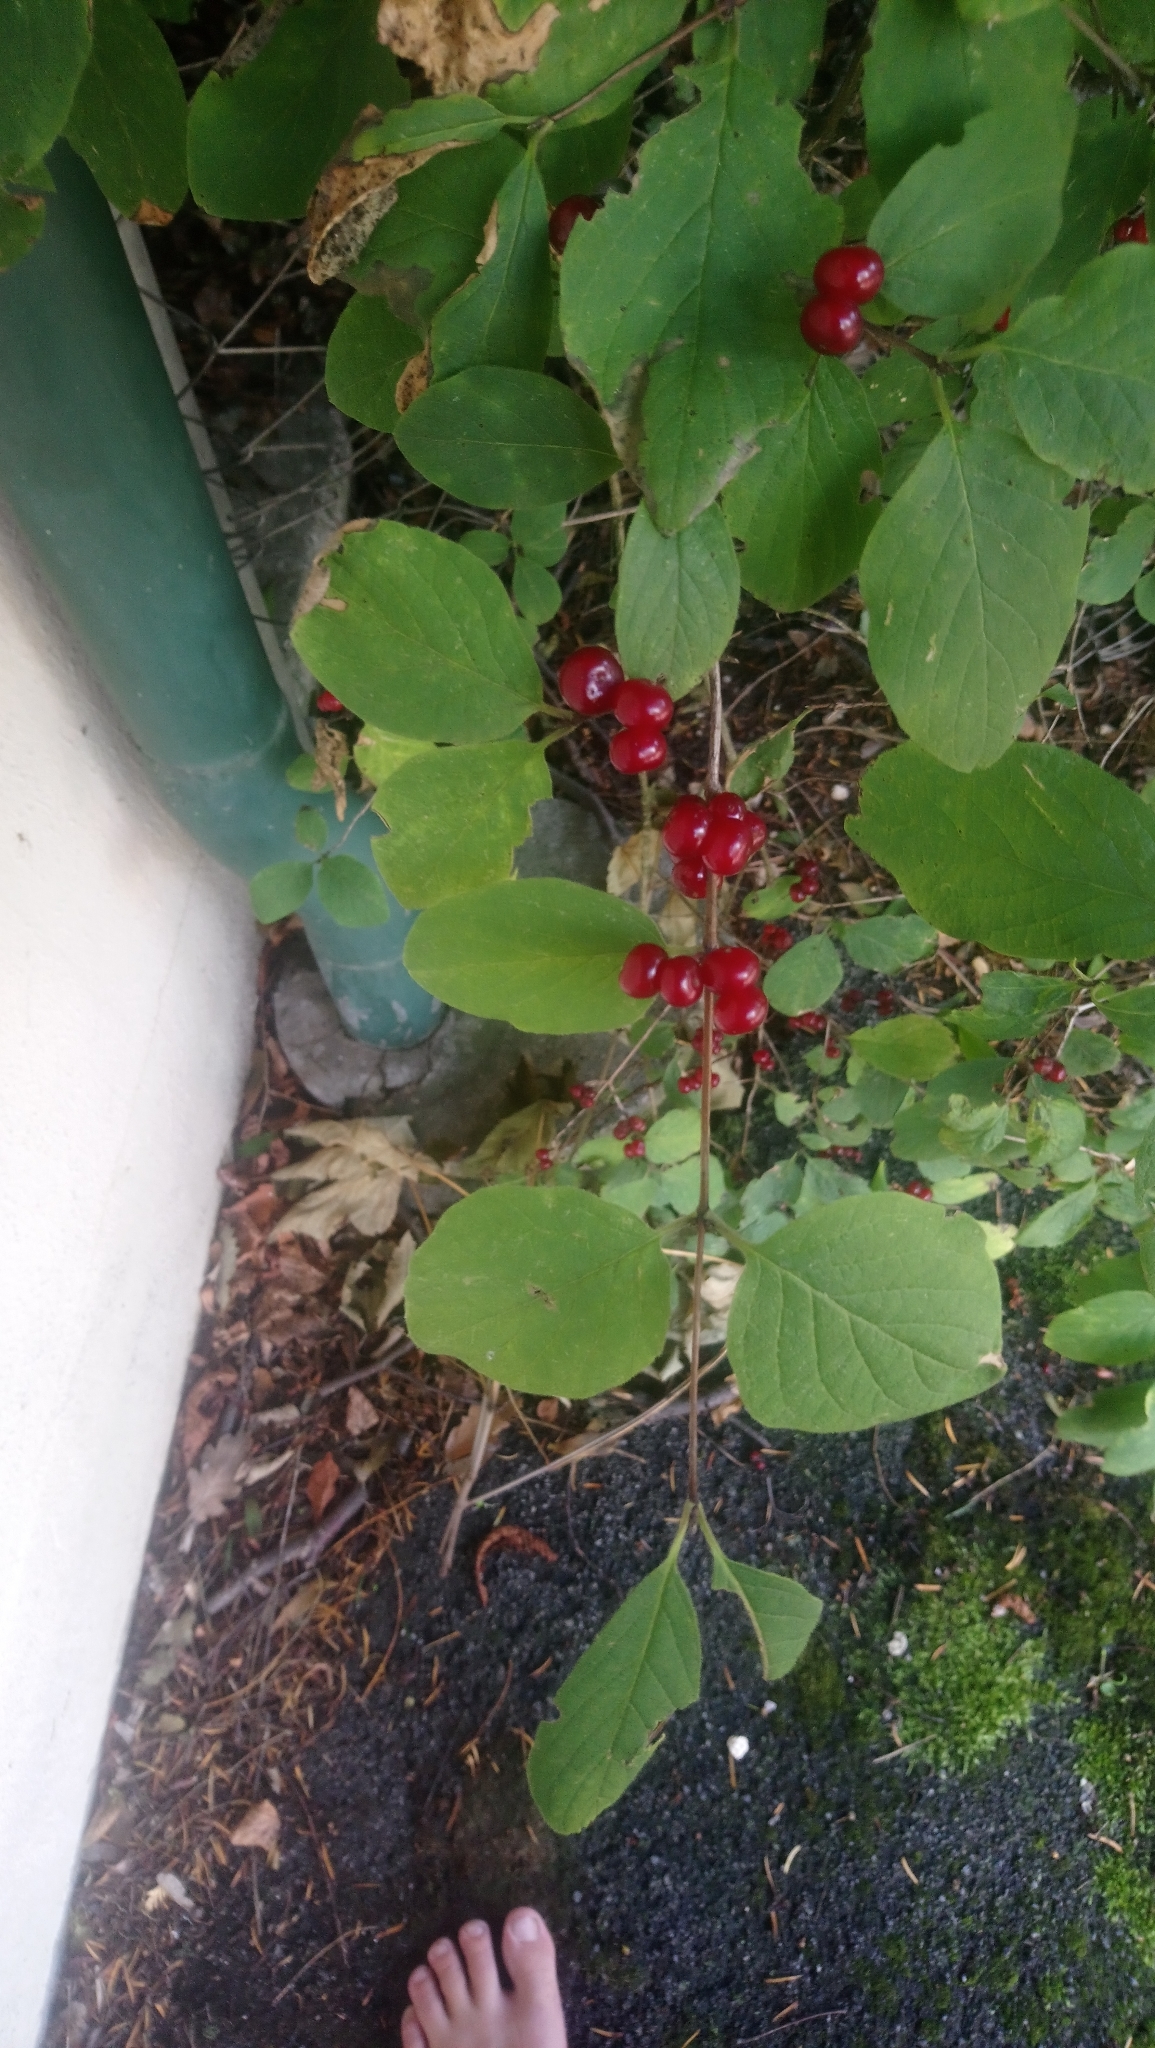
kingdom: Plantae
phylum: Tracheophyta
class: Magnoliopsida
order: Dipsacales
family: Caprifoliaceae
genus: Lonicera
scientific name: Lonicera xylosteum
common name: Fly honeysuckle
